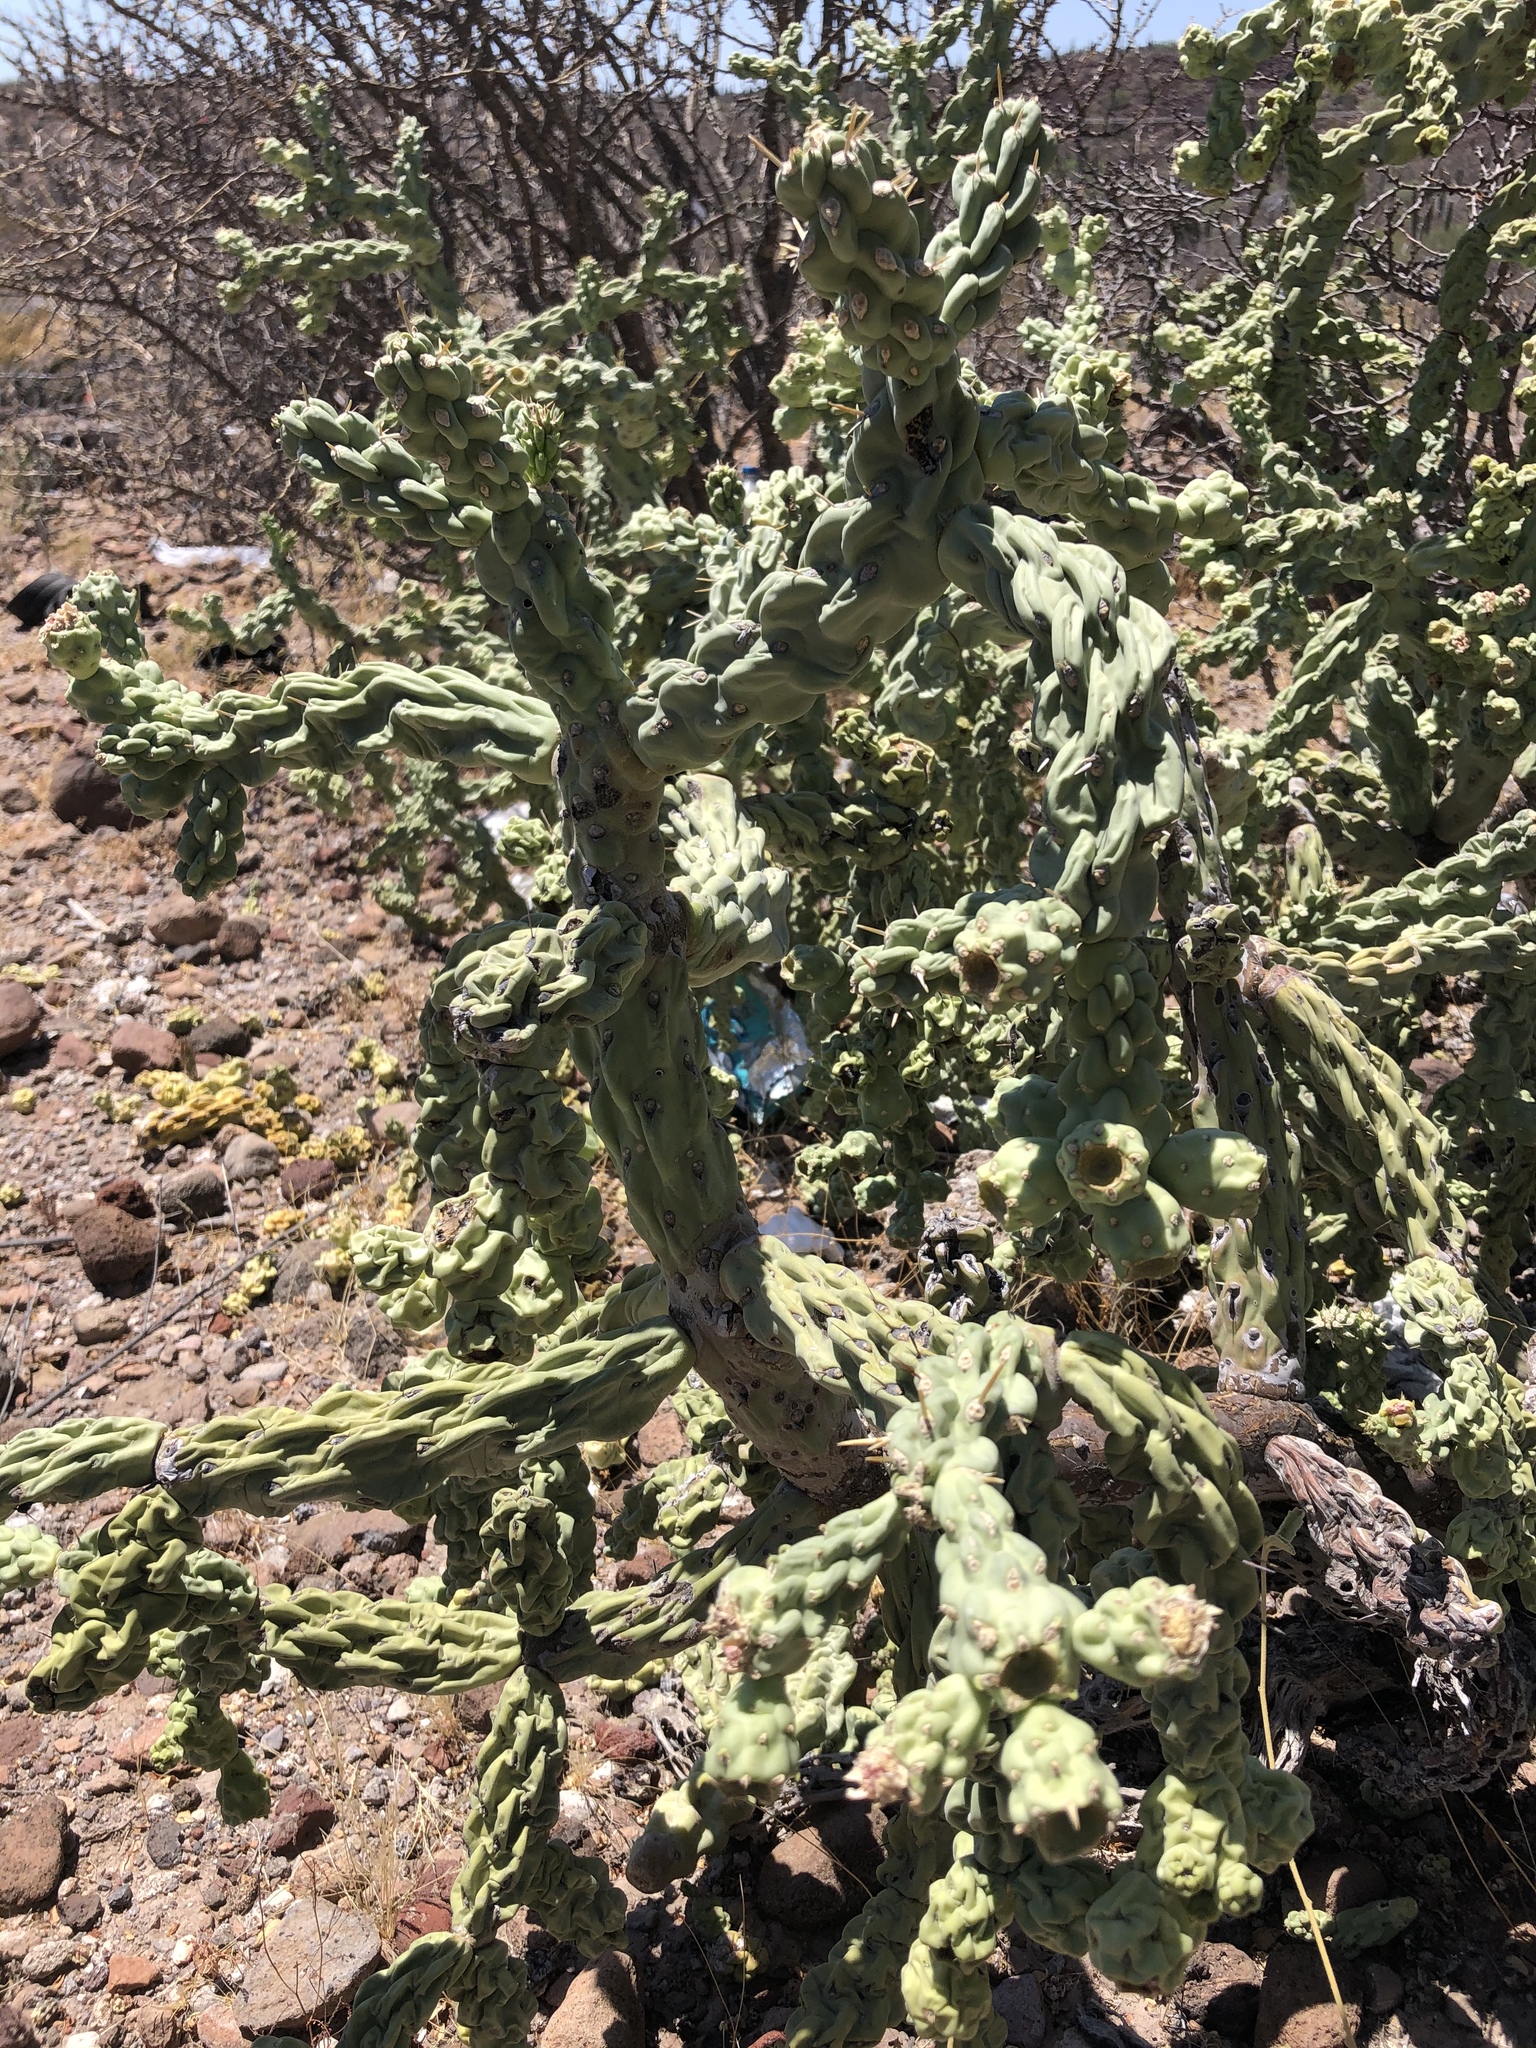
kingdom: Plantae
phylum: Tracheophyta
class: Magnoliopsida
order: Caryophyllales
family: Cactaceae
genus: Cylindropuntia
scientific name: Cylindropuntia cholla
